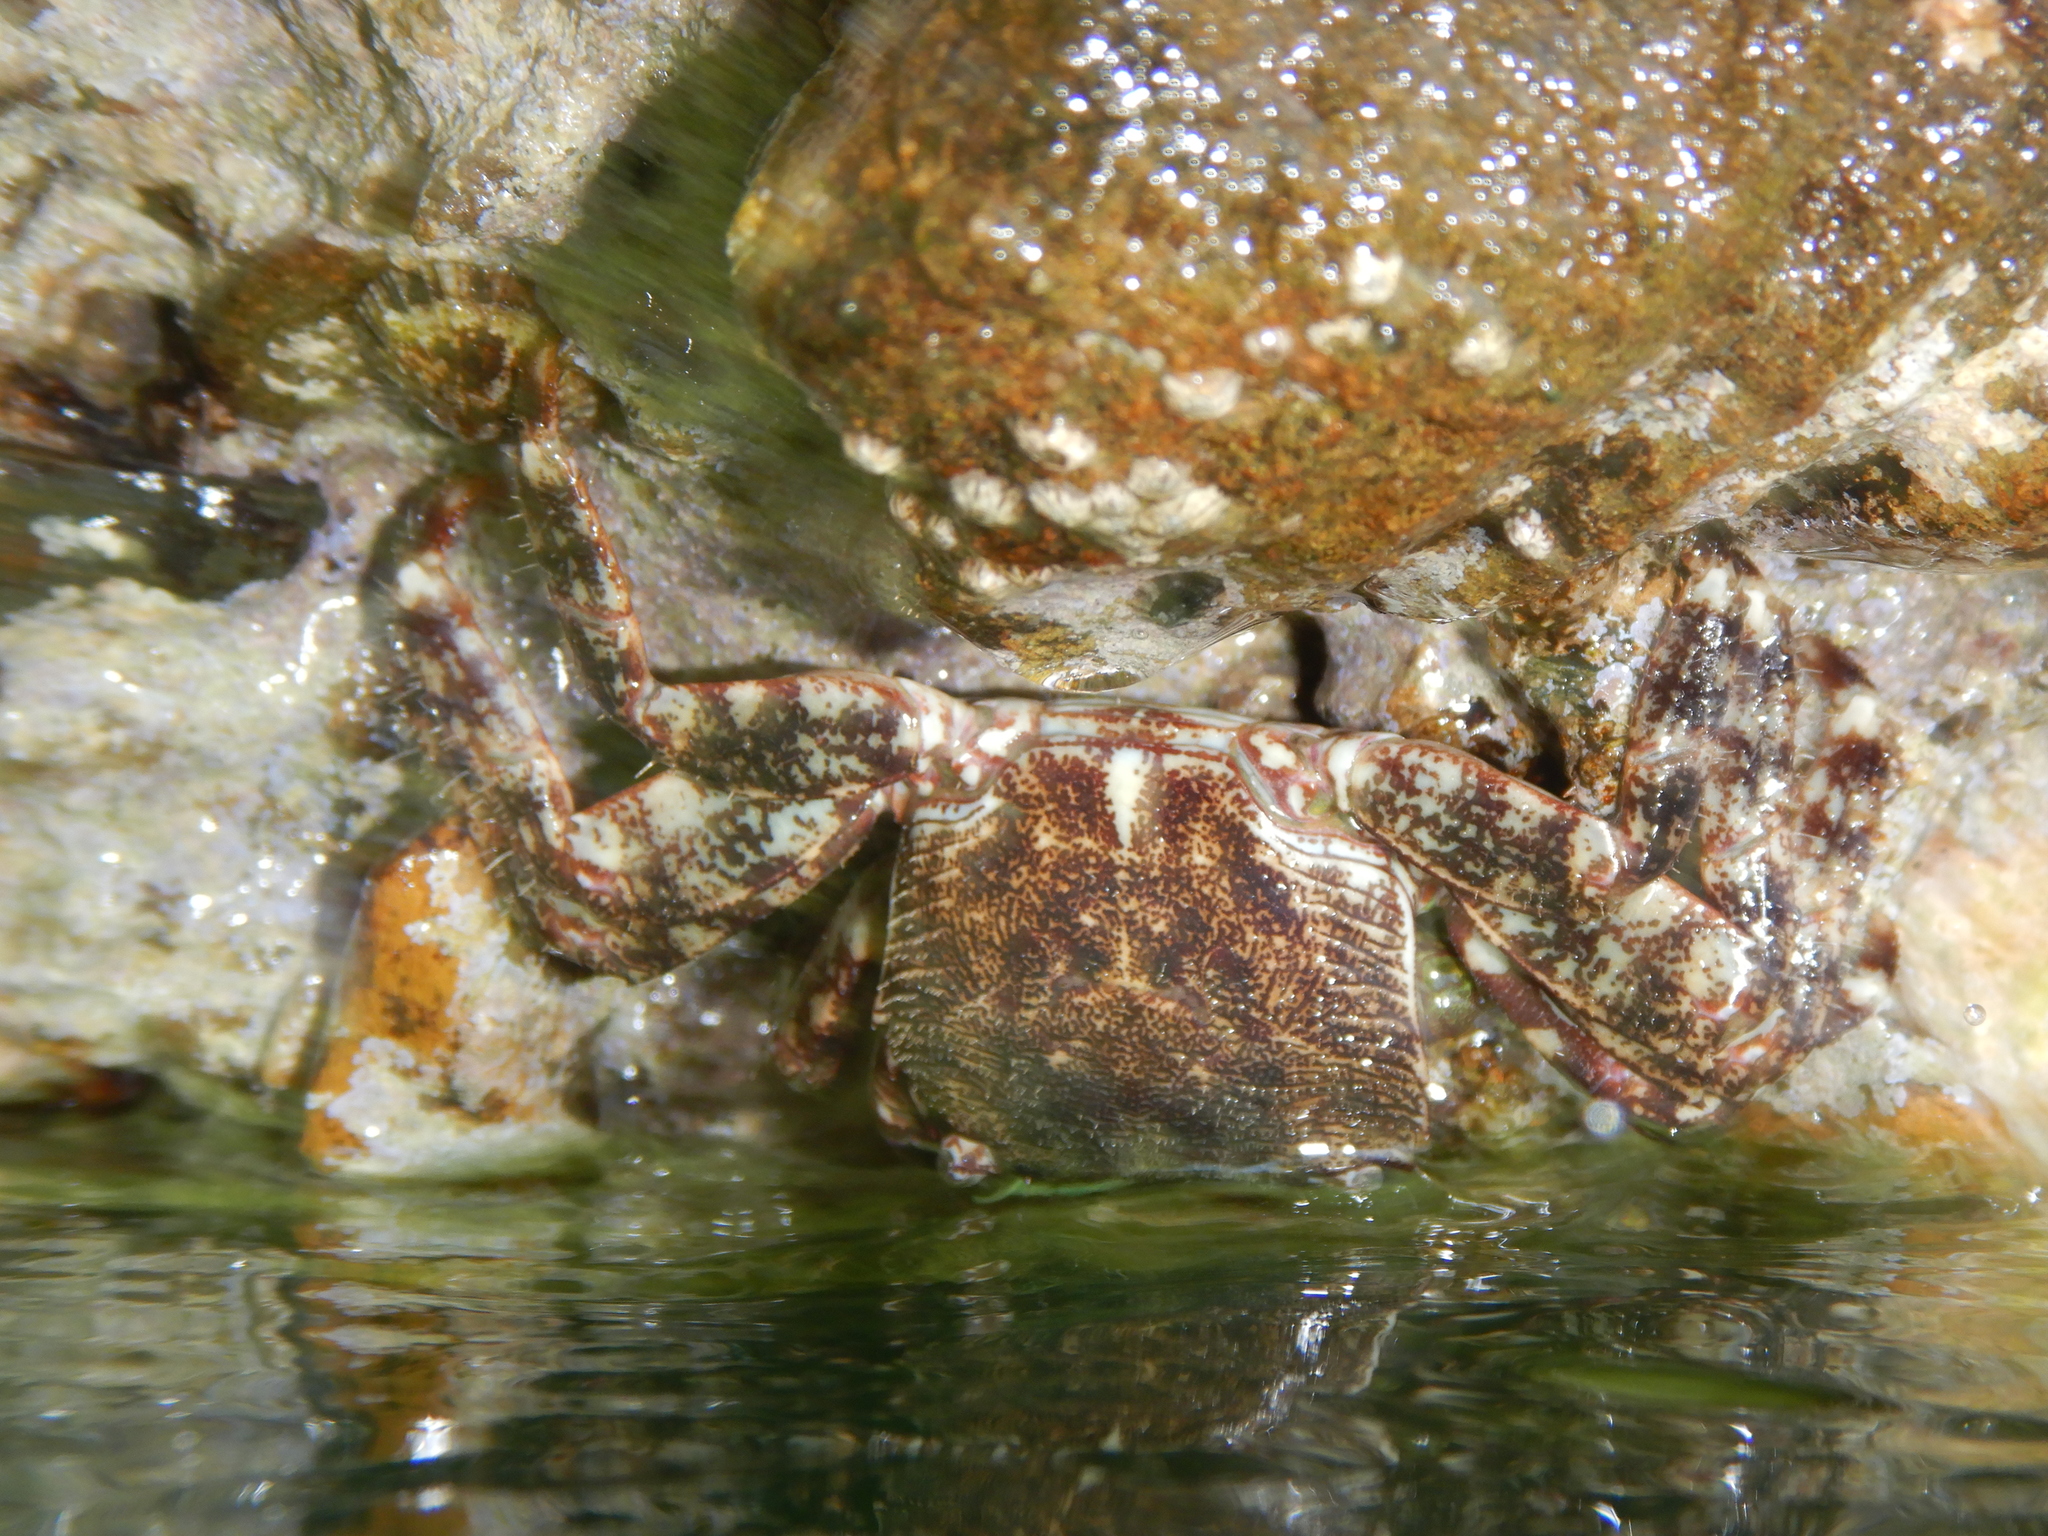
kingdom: Animalia
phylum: Arthropoda
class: Malacostraca
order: Decapoda
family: Grapsidae
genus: Pachygrapsus
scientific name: Pachygrapsus marmoratus
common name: Marbled rock crab
